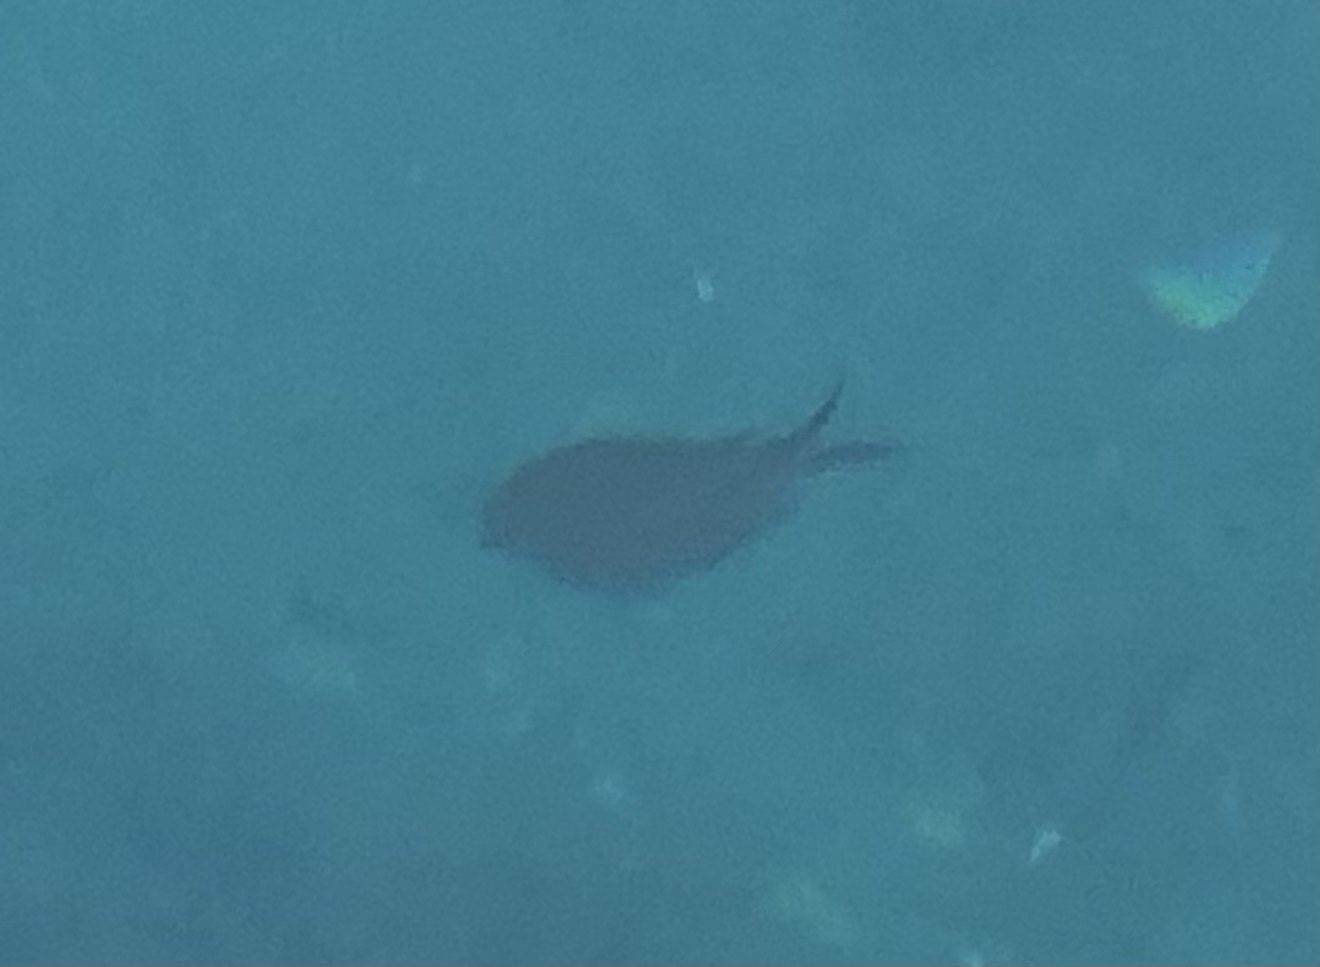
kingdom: Animalia
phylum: Chordata
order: Perciformes
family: Pomacentridae
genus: Chromis
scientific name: Chromis chromis
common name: Damselfish
